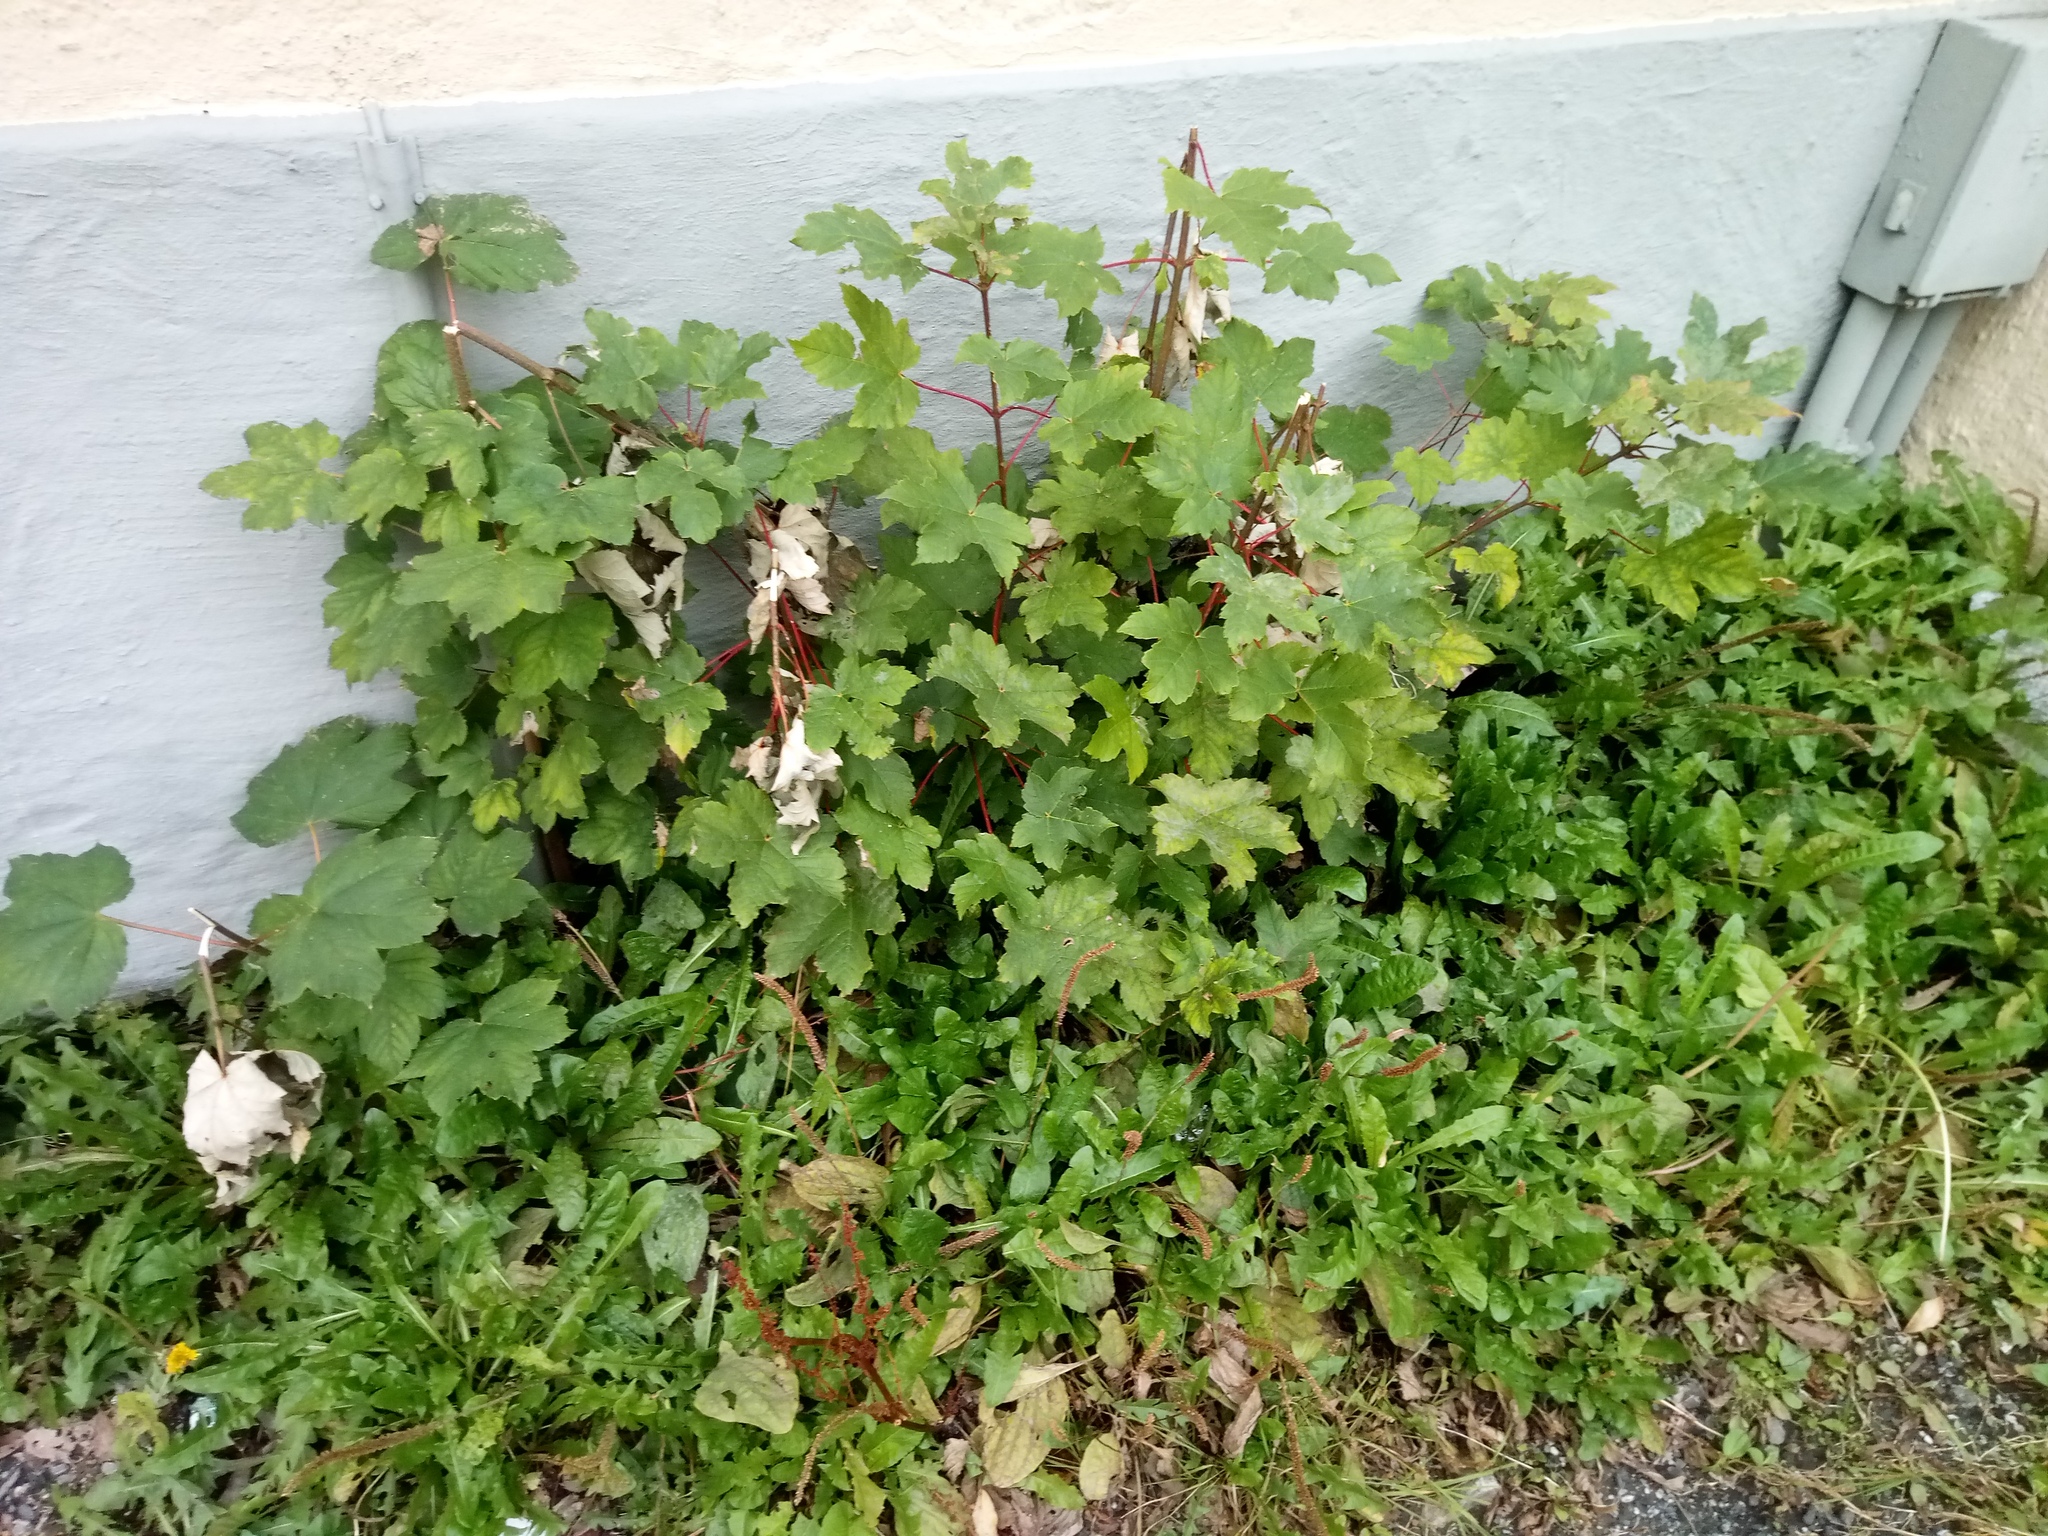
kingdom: Plantae
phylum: Tracheophyta
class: Magnoliopsida
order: Sapindales
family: Sapindaceae
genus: Acer
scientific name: Acer pseudoplatanus
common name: Sycamore
